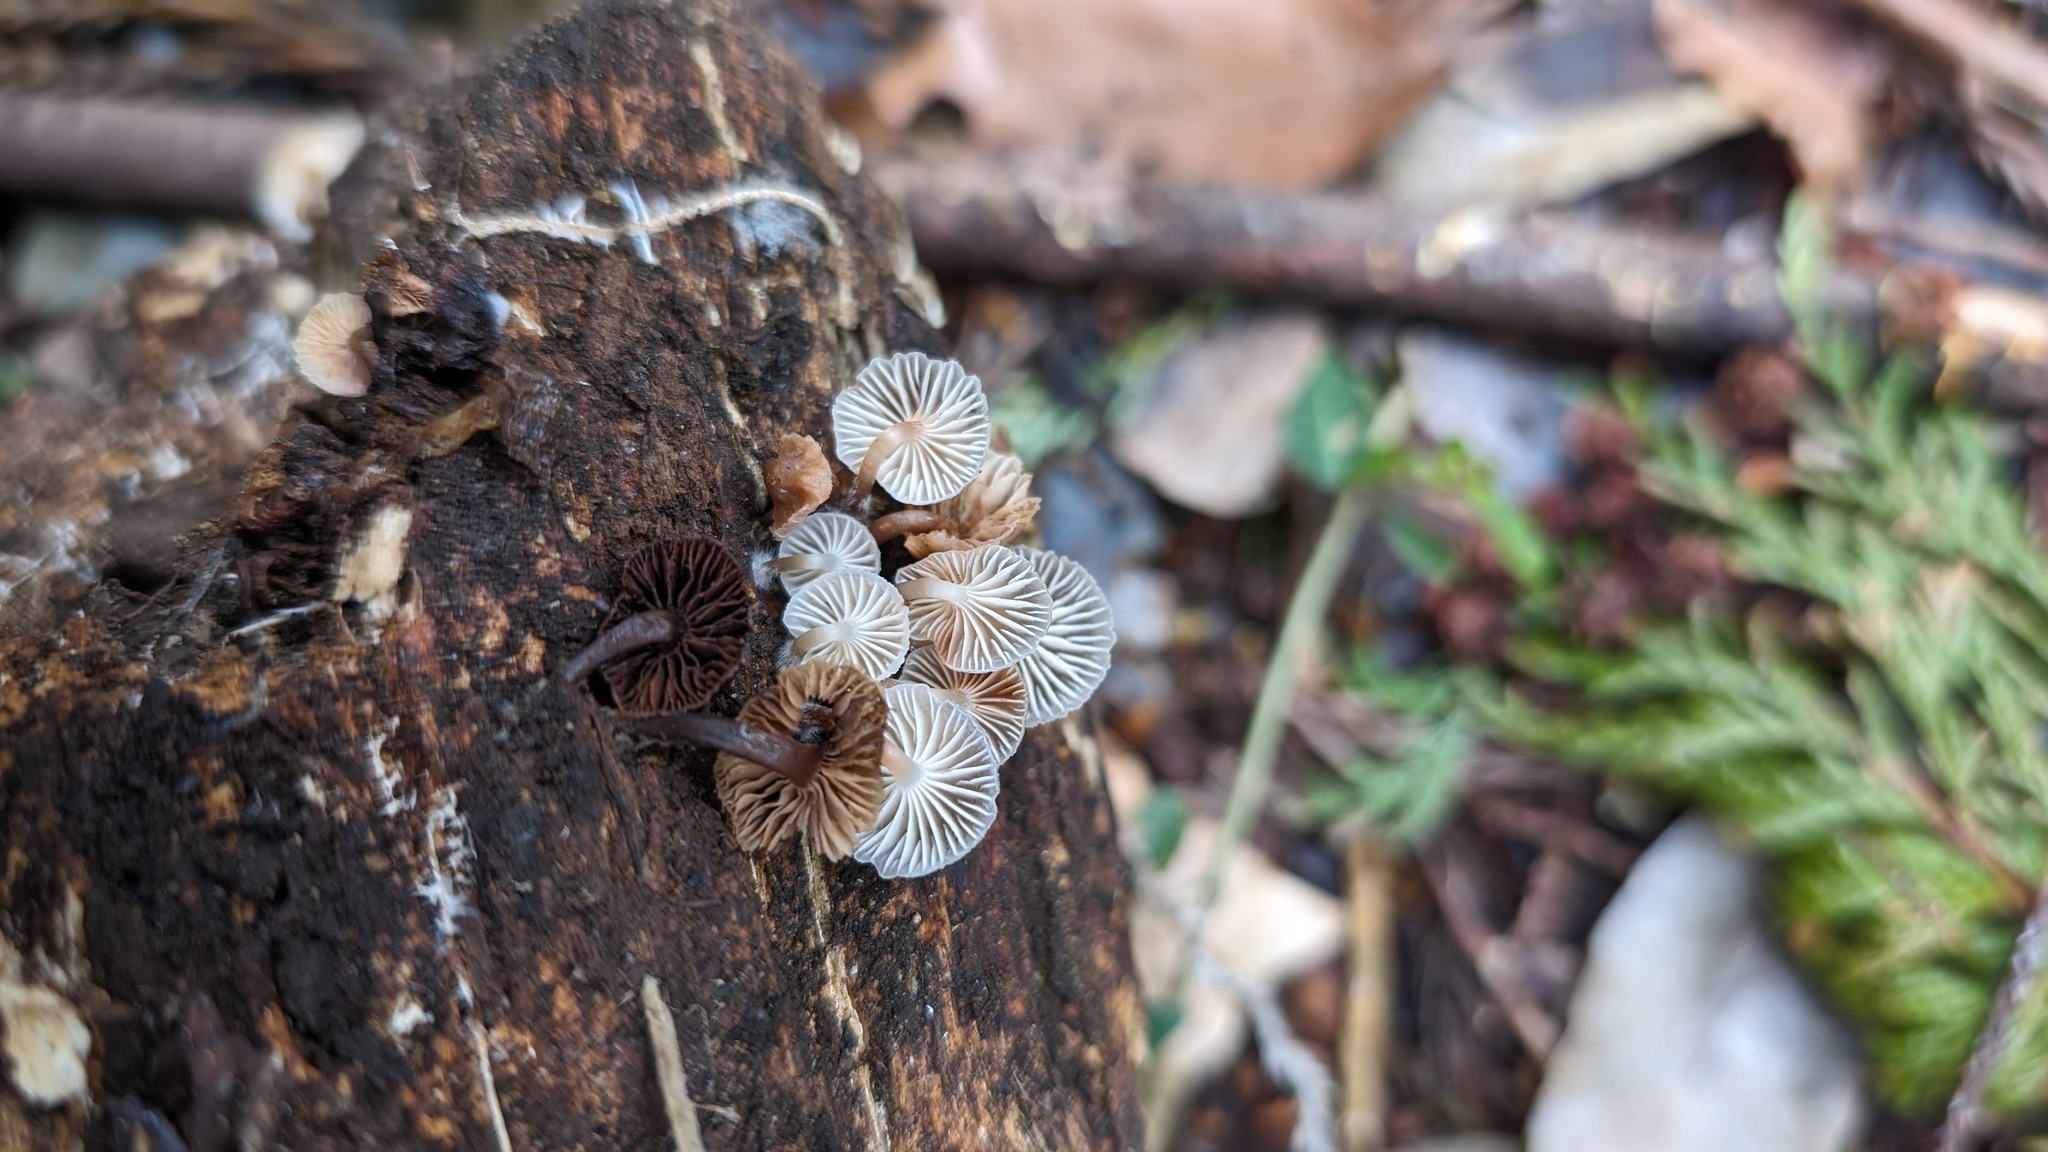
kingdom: Fungi
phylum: Basidiomycota
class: Agaricomycetes
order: Agaricales
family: Mycenaceae
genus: Mycena
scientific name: Mycena laevigata
